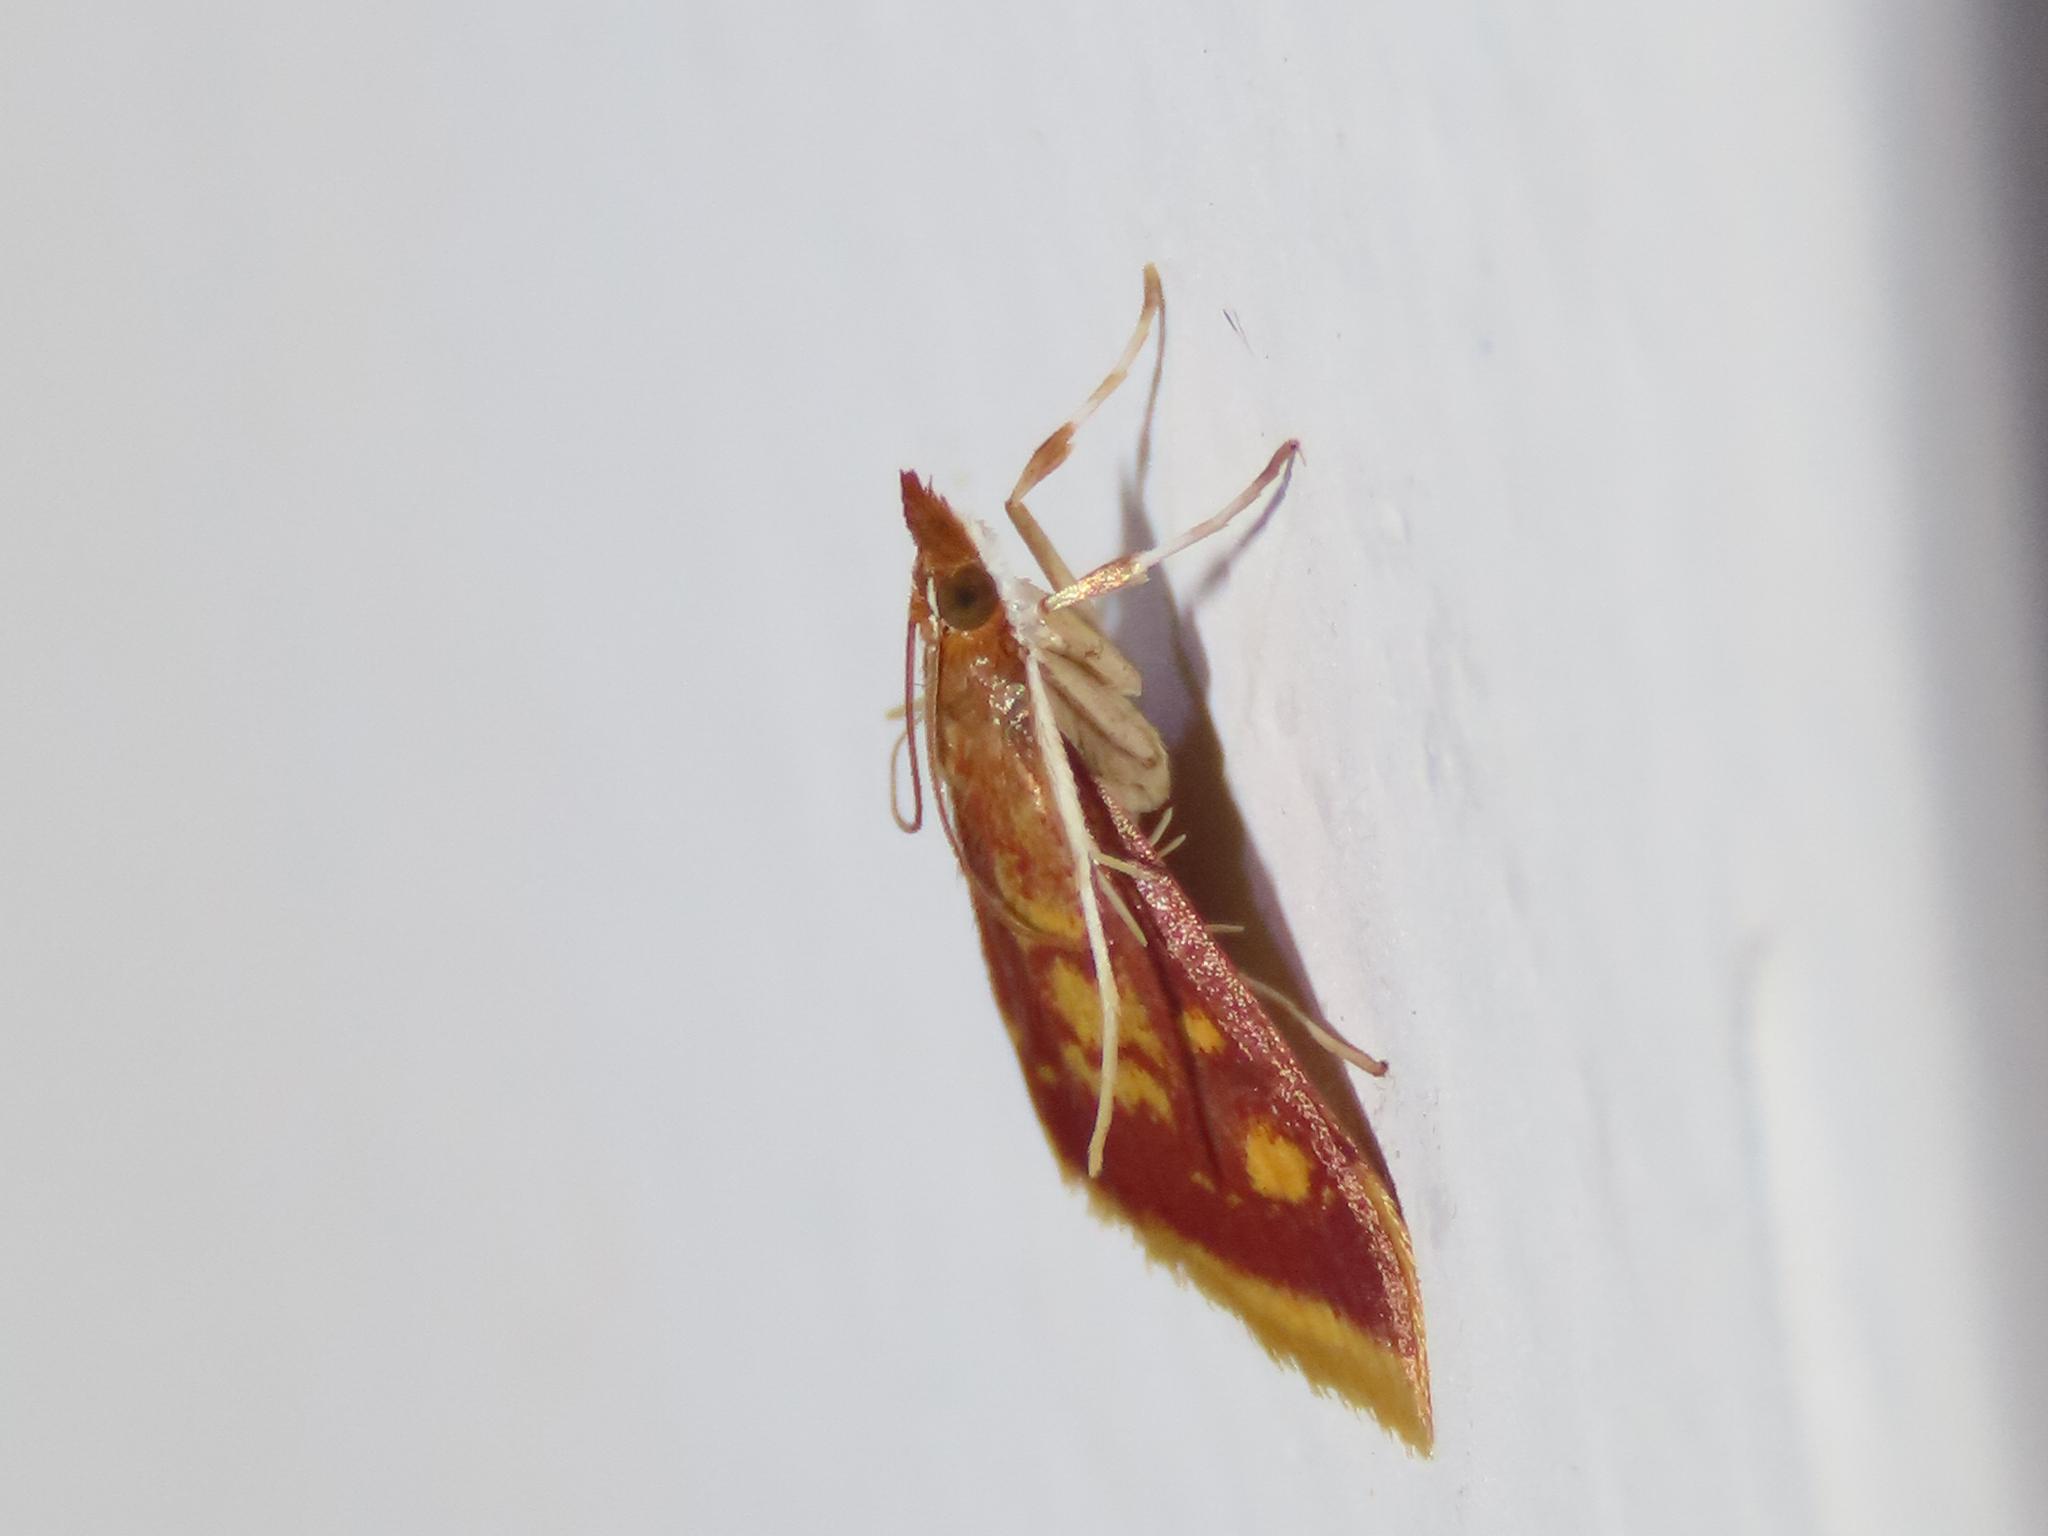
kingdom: Animalia
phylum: Arthropoda
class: Insecta
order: Lepidoptera
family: Crambidae
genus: Pyrausta
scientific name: Pyrausta acrionalis
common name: Mint-loving pyrausta moth
